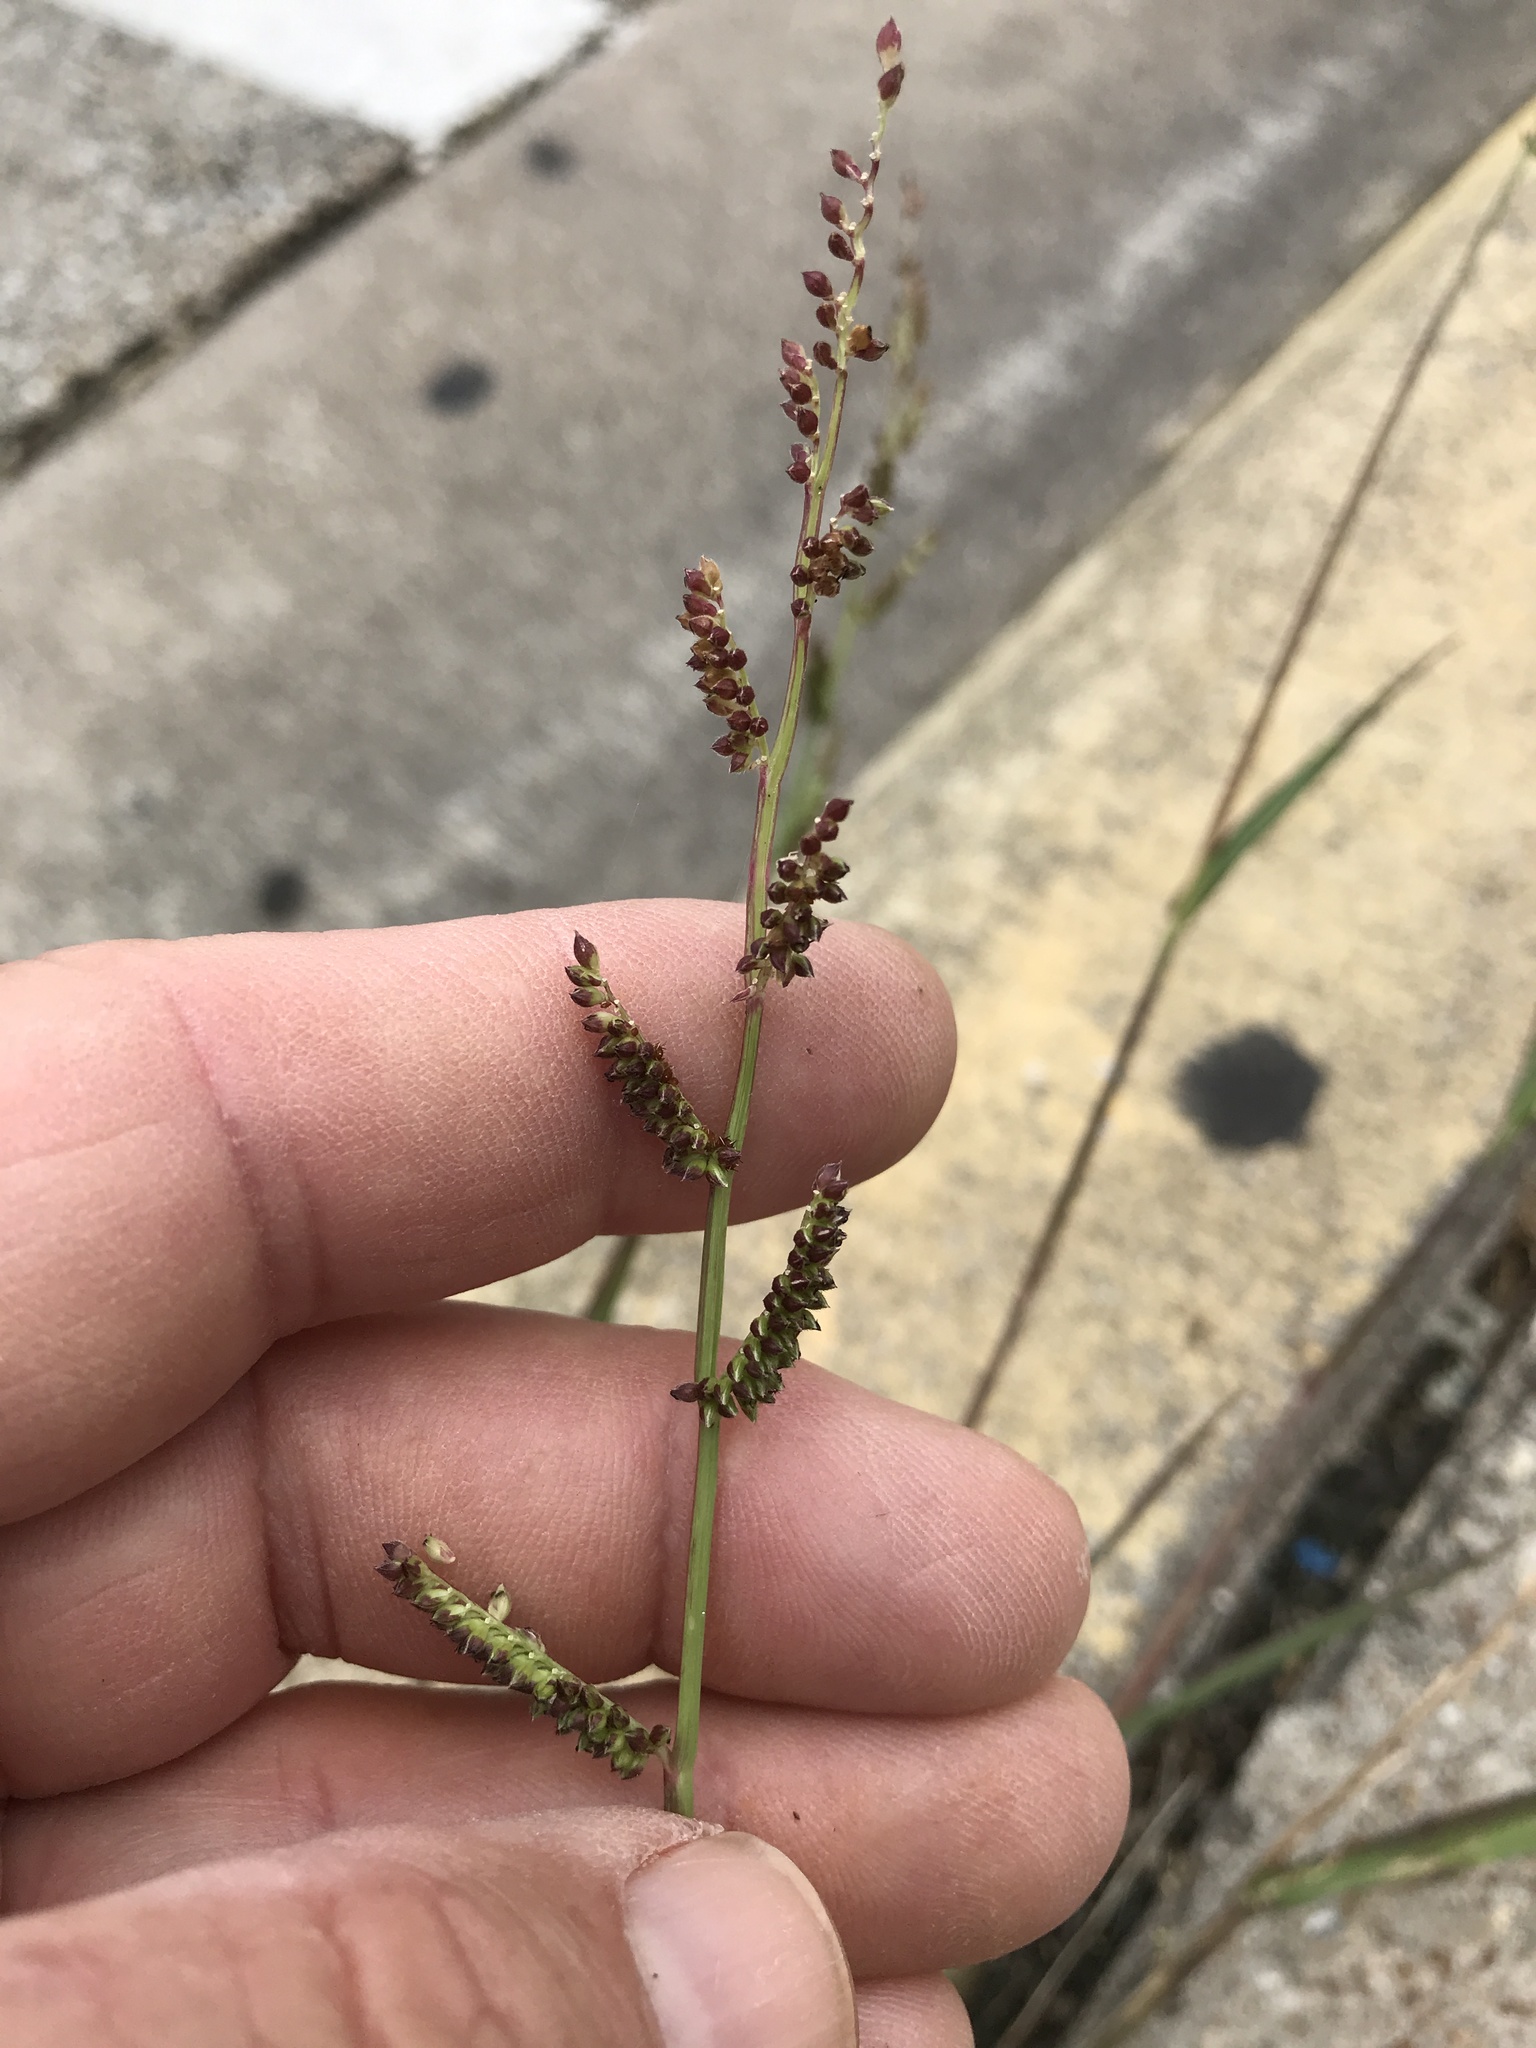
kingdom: Plantae
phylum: Tracheophyta
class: Liliopsida
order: Poales
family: Poaceae
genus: Echinochloa
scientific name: Echinochloa colonum
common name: Jungle rice
